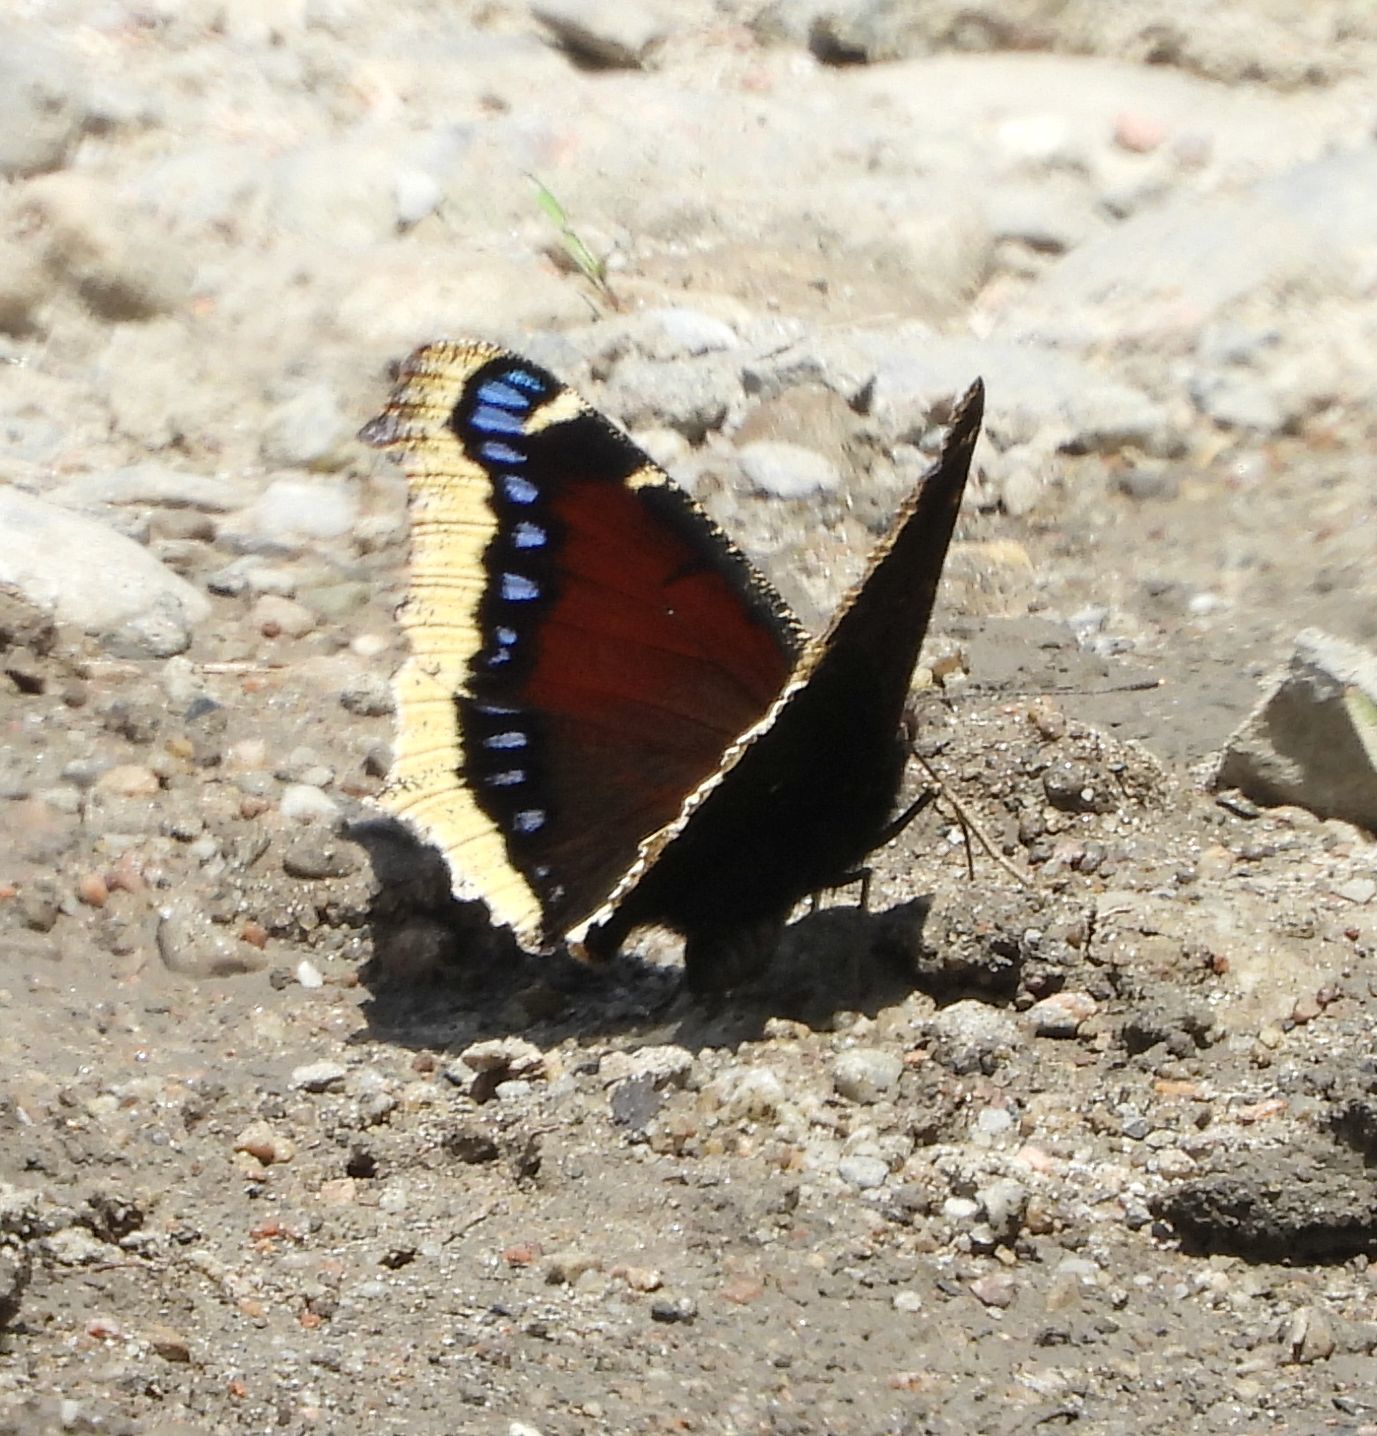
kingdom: Animalia
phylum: Arthropoda
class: Insecta
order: Lepidoptera
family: Nymphalidae
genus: Nymphalis
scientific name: Nymphalis antiopa
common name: Camberwell beauty
